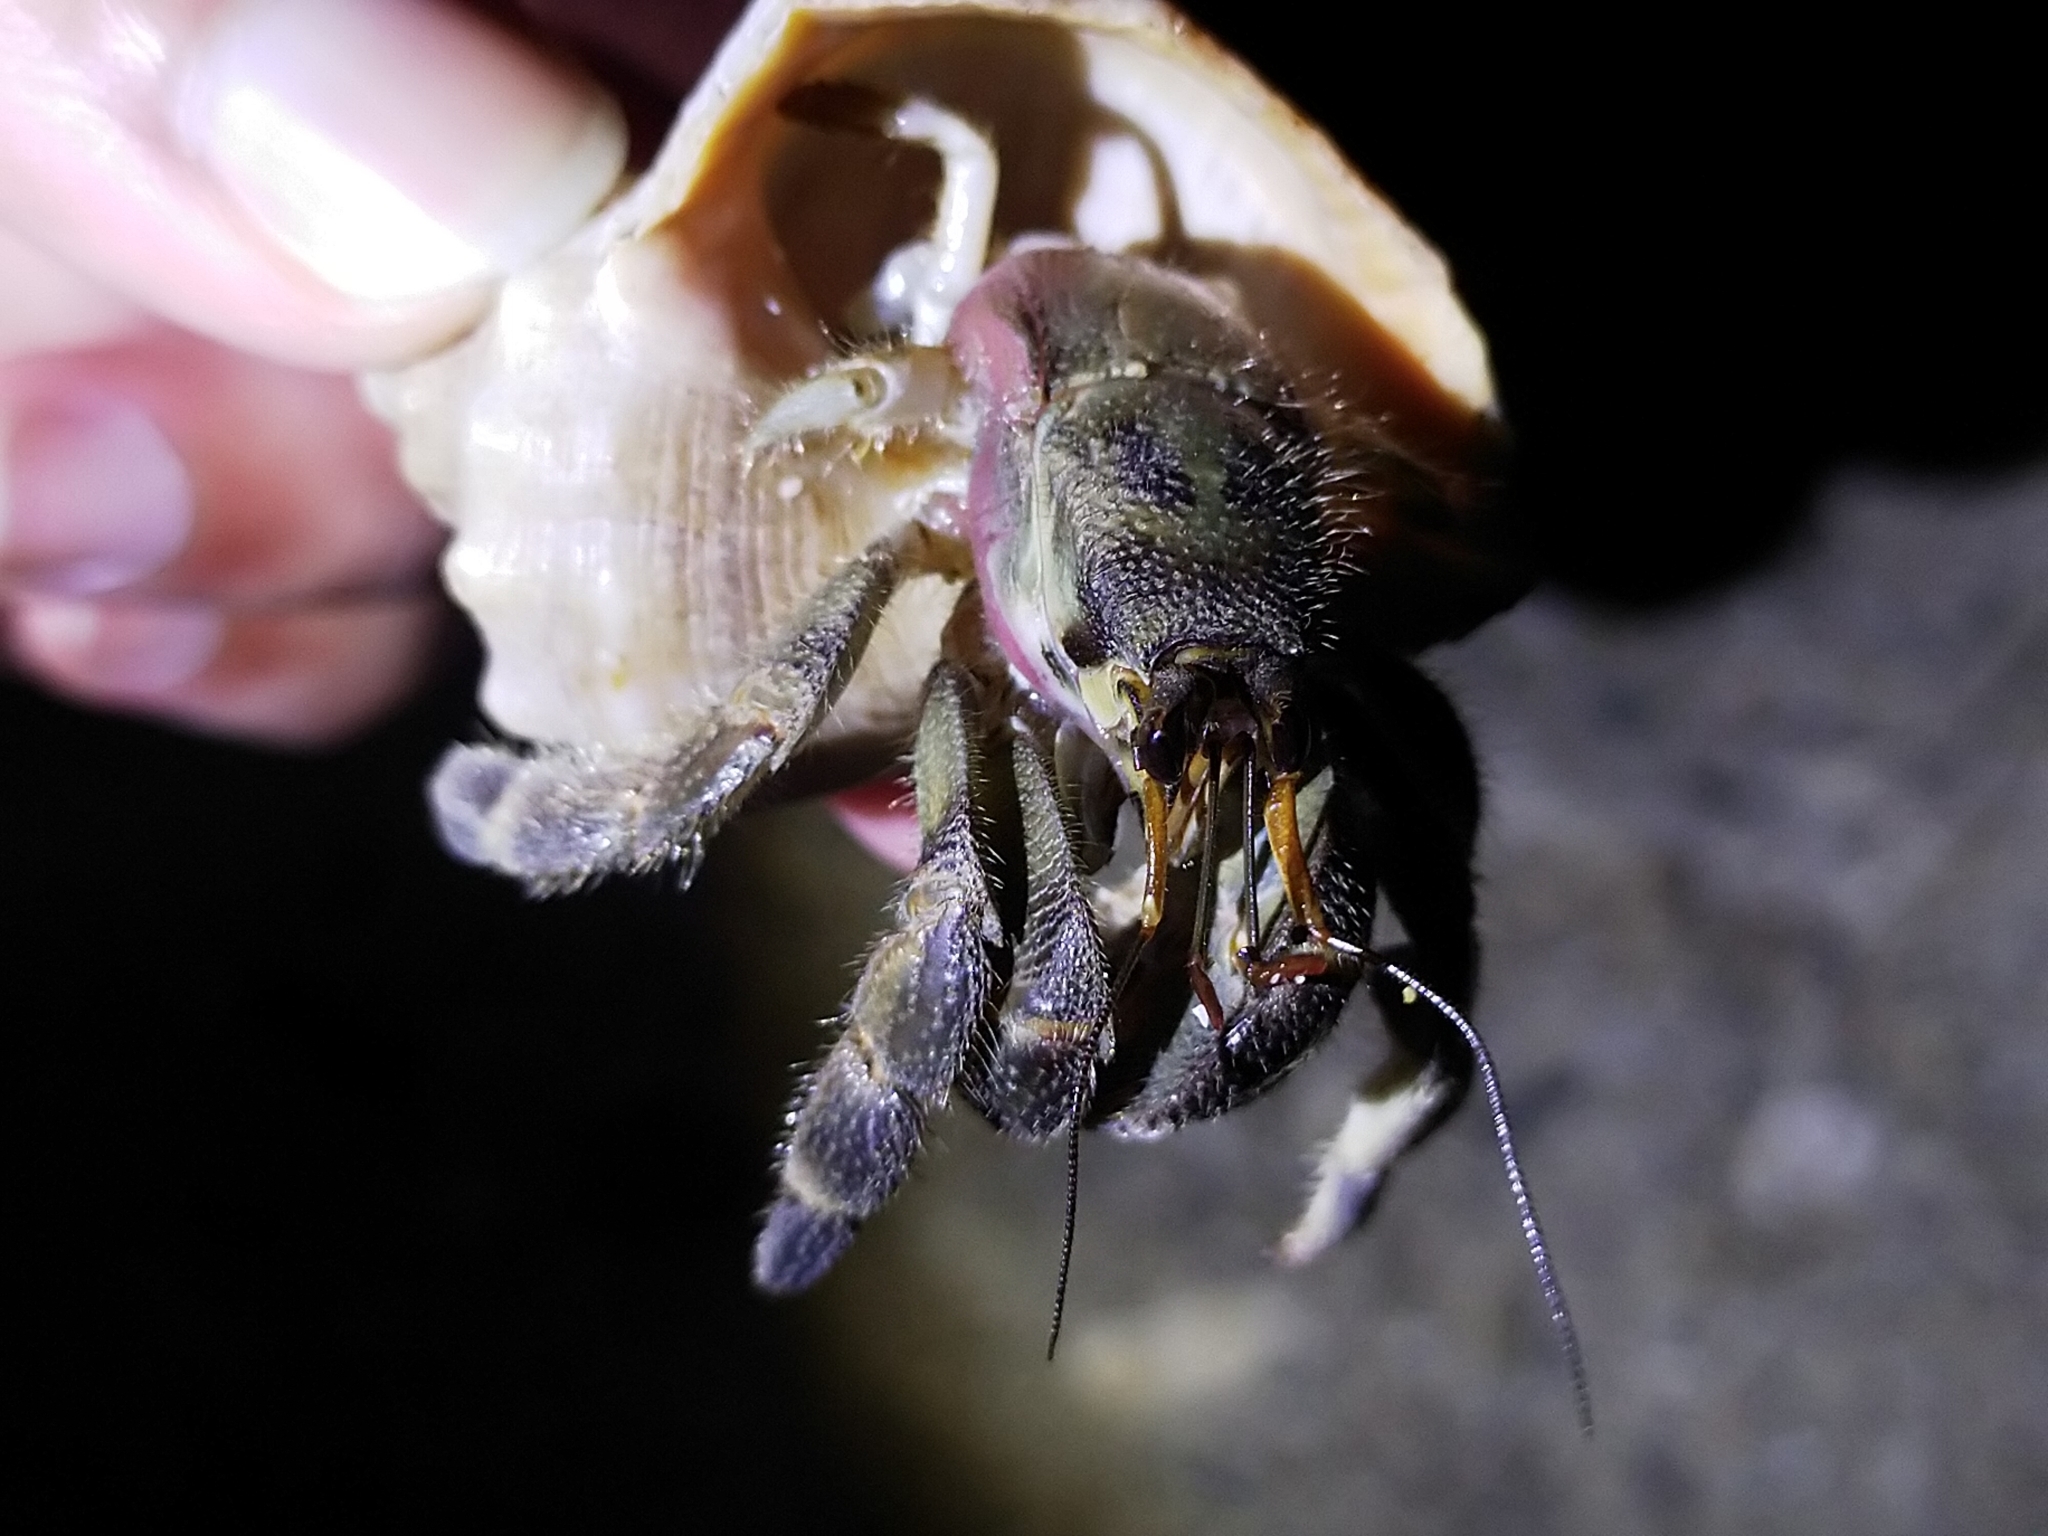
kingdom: Animalia
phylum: Arthropoda
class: Malacostraca
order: Decapoda
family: Coenobitidae
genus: Coenobita
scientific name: Coenobita rugosus
